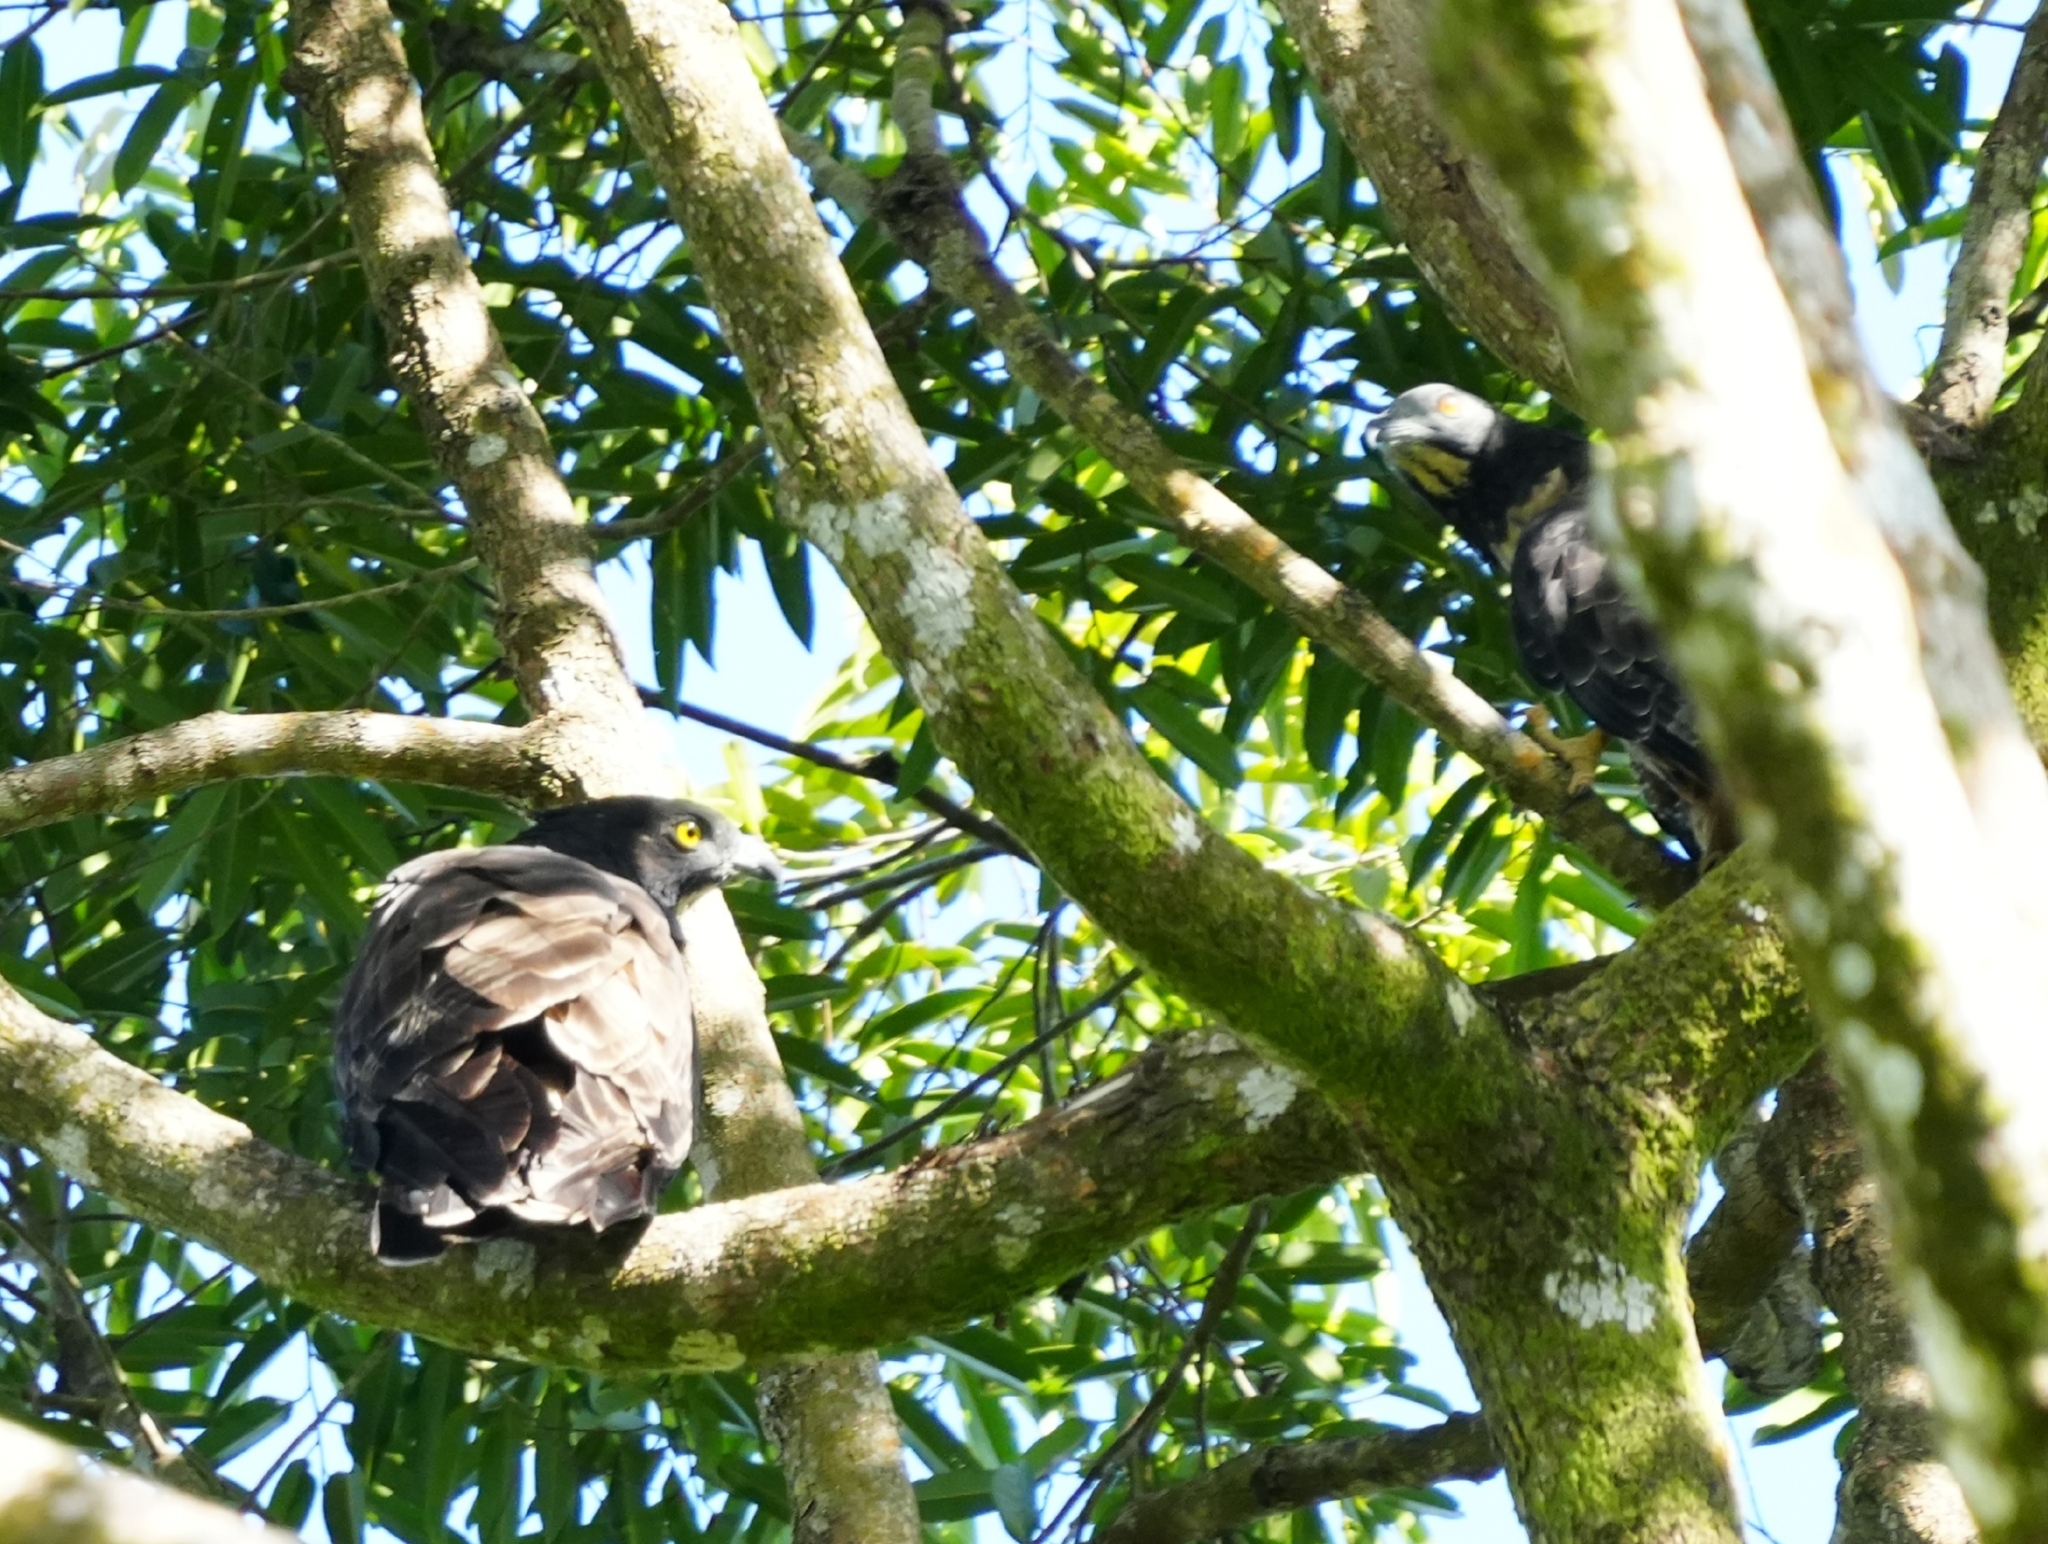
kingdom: Animalia
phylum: Chordata
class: Aves
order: Accipitriformes
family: Accipitridae
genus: Pernis
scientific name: Pernis ptilorhynchus
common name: Crested honey buzzard
